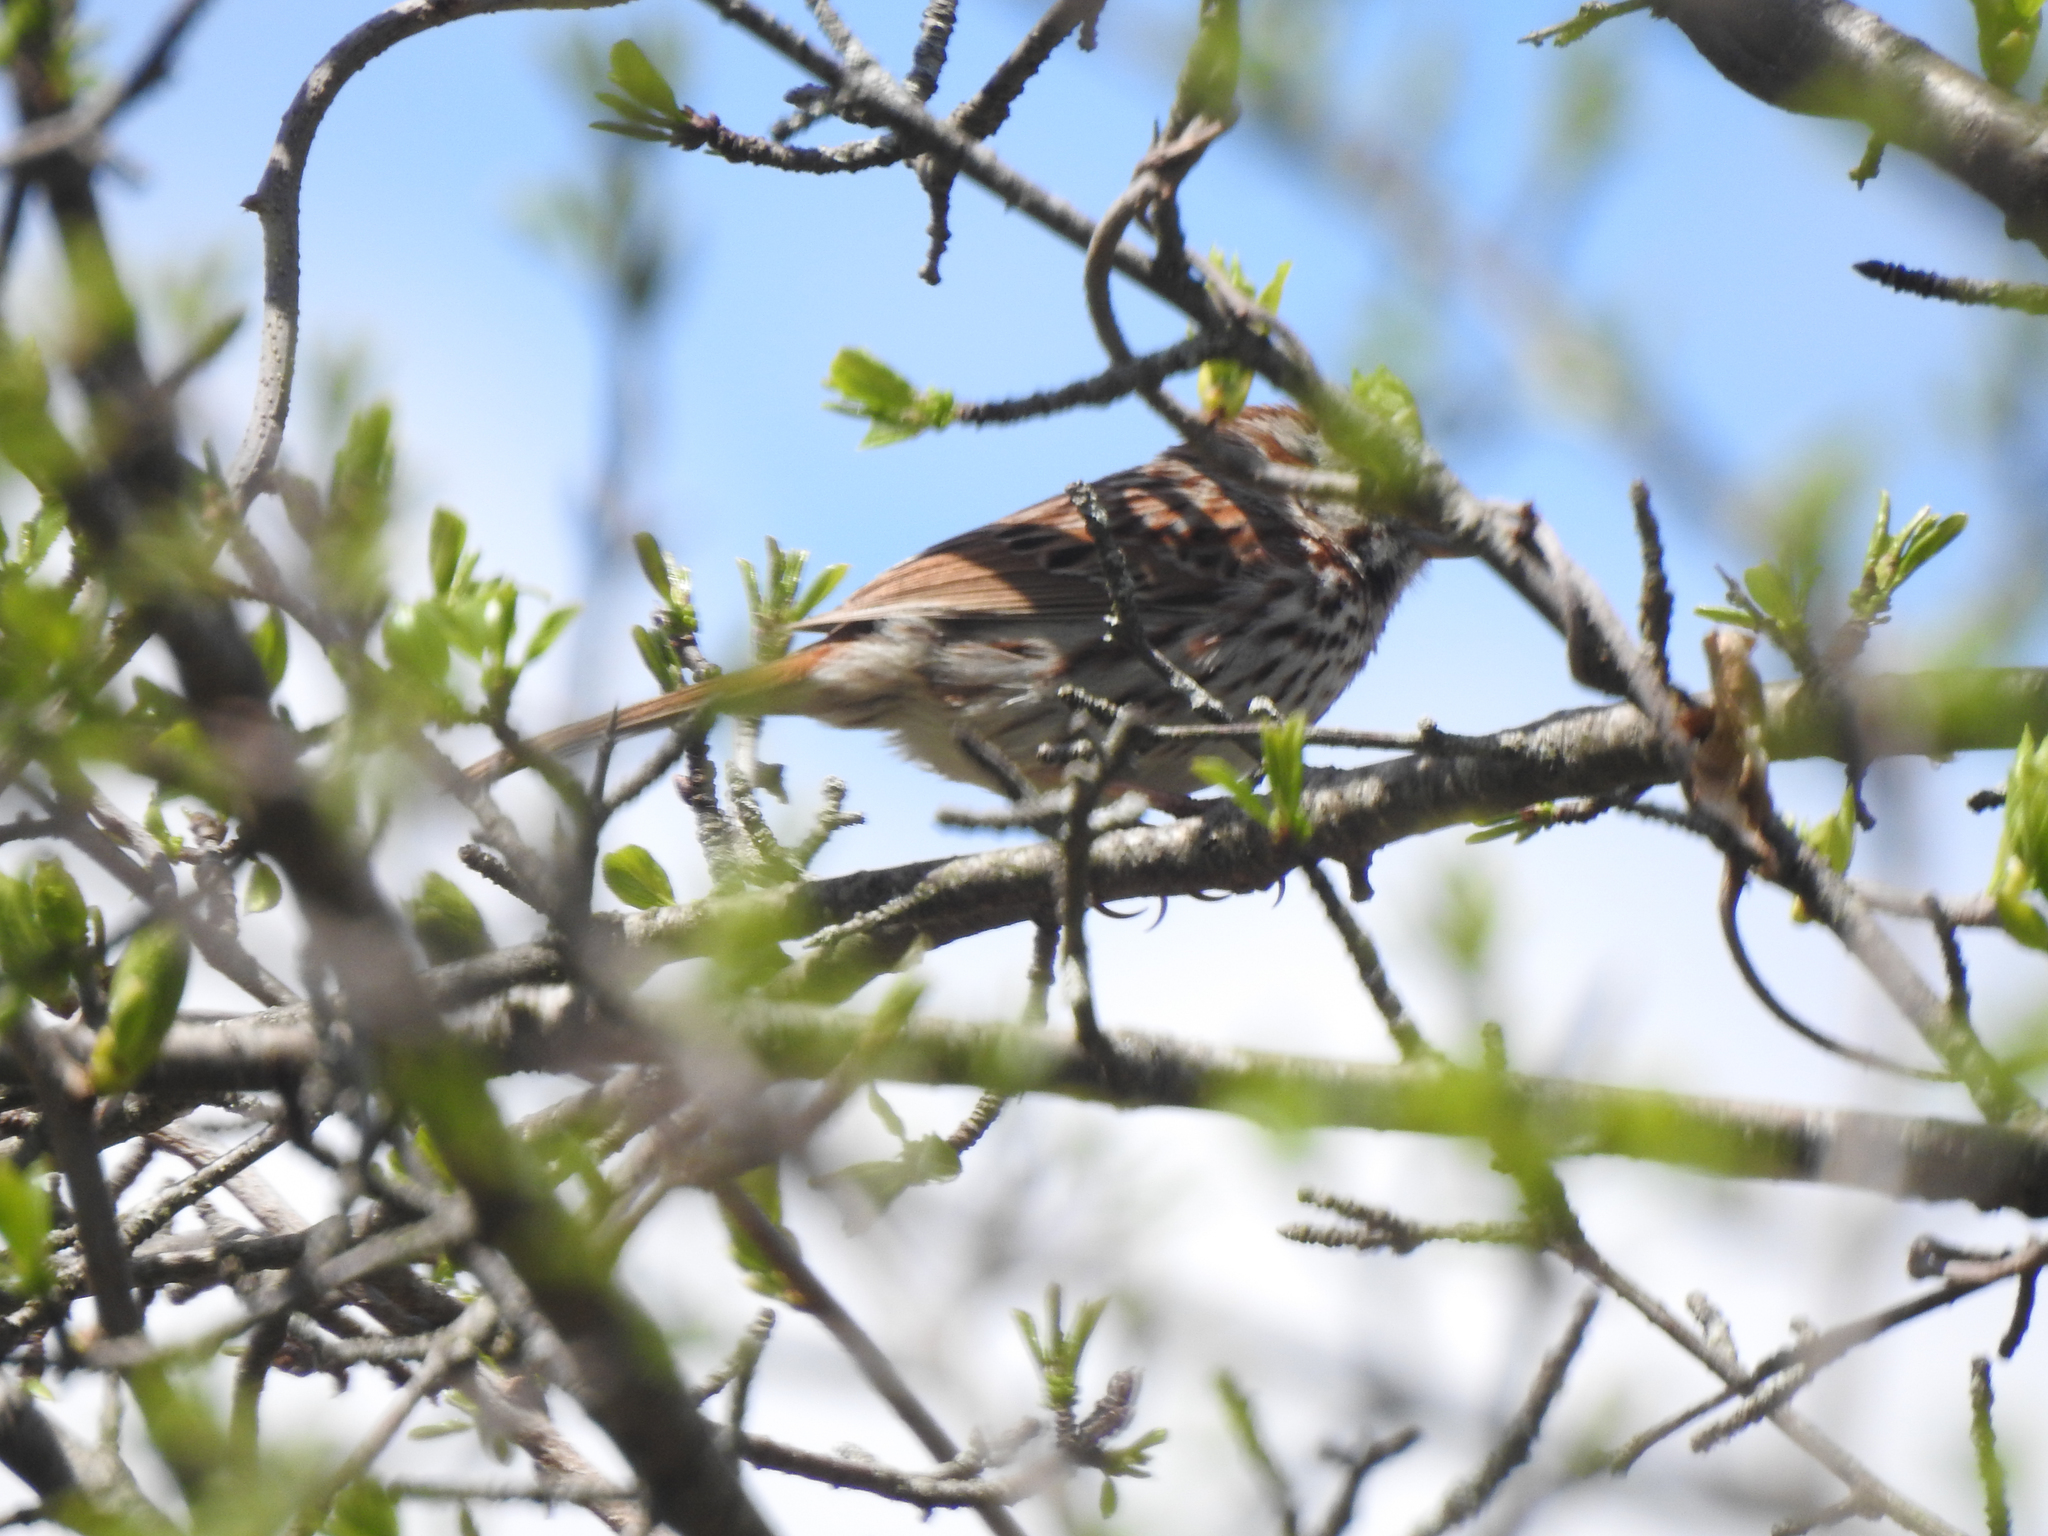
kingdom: Animalia
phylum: Chordata
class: Aves
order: Passeriformes
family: Passerellidae
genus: Melospiza
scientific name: Melospiza melodia
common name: Song sparrow
